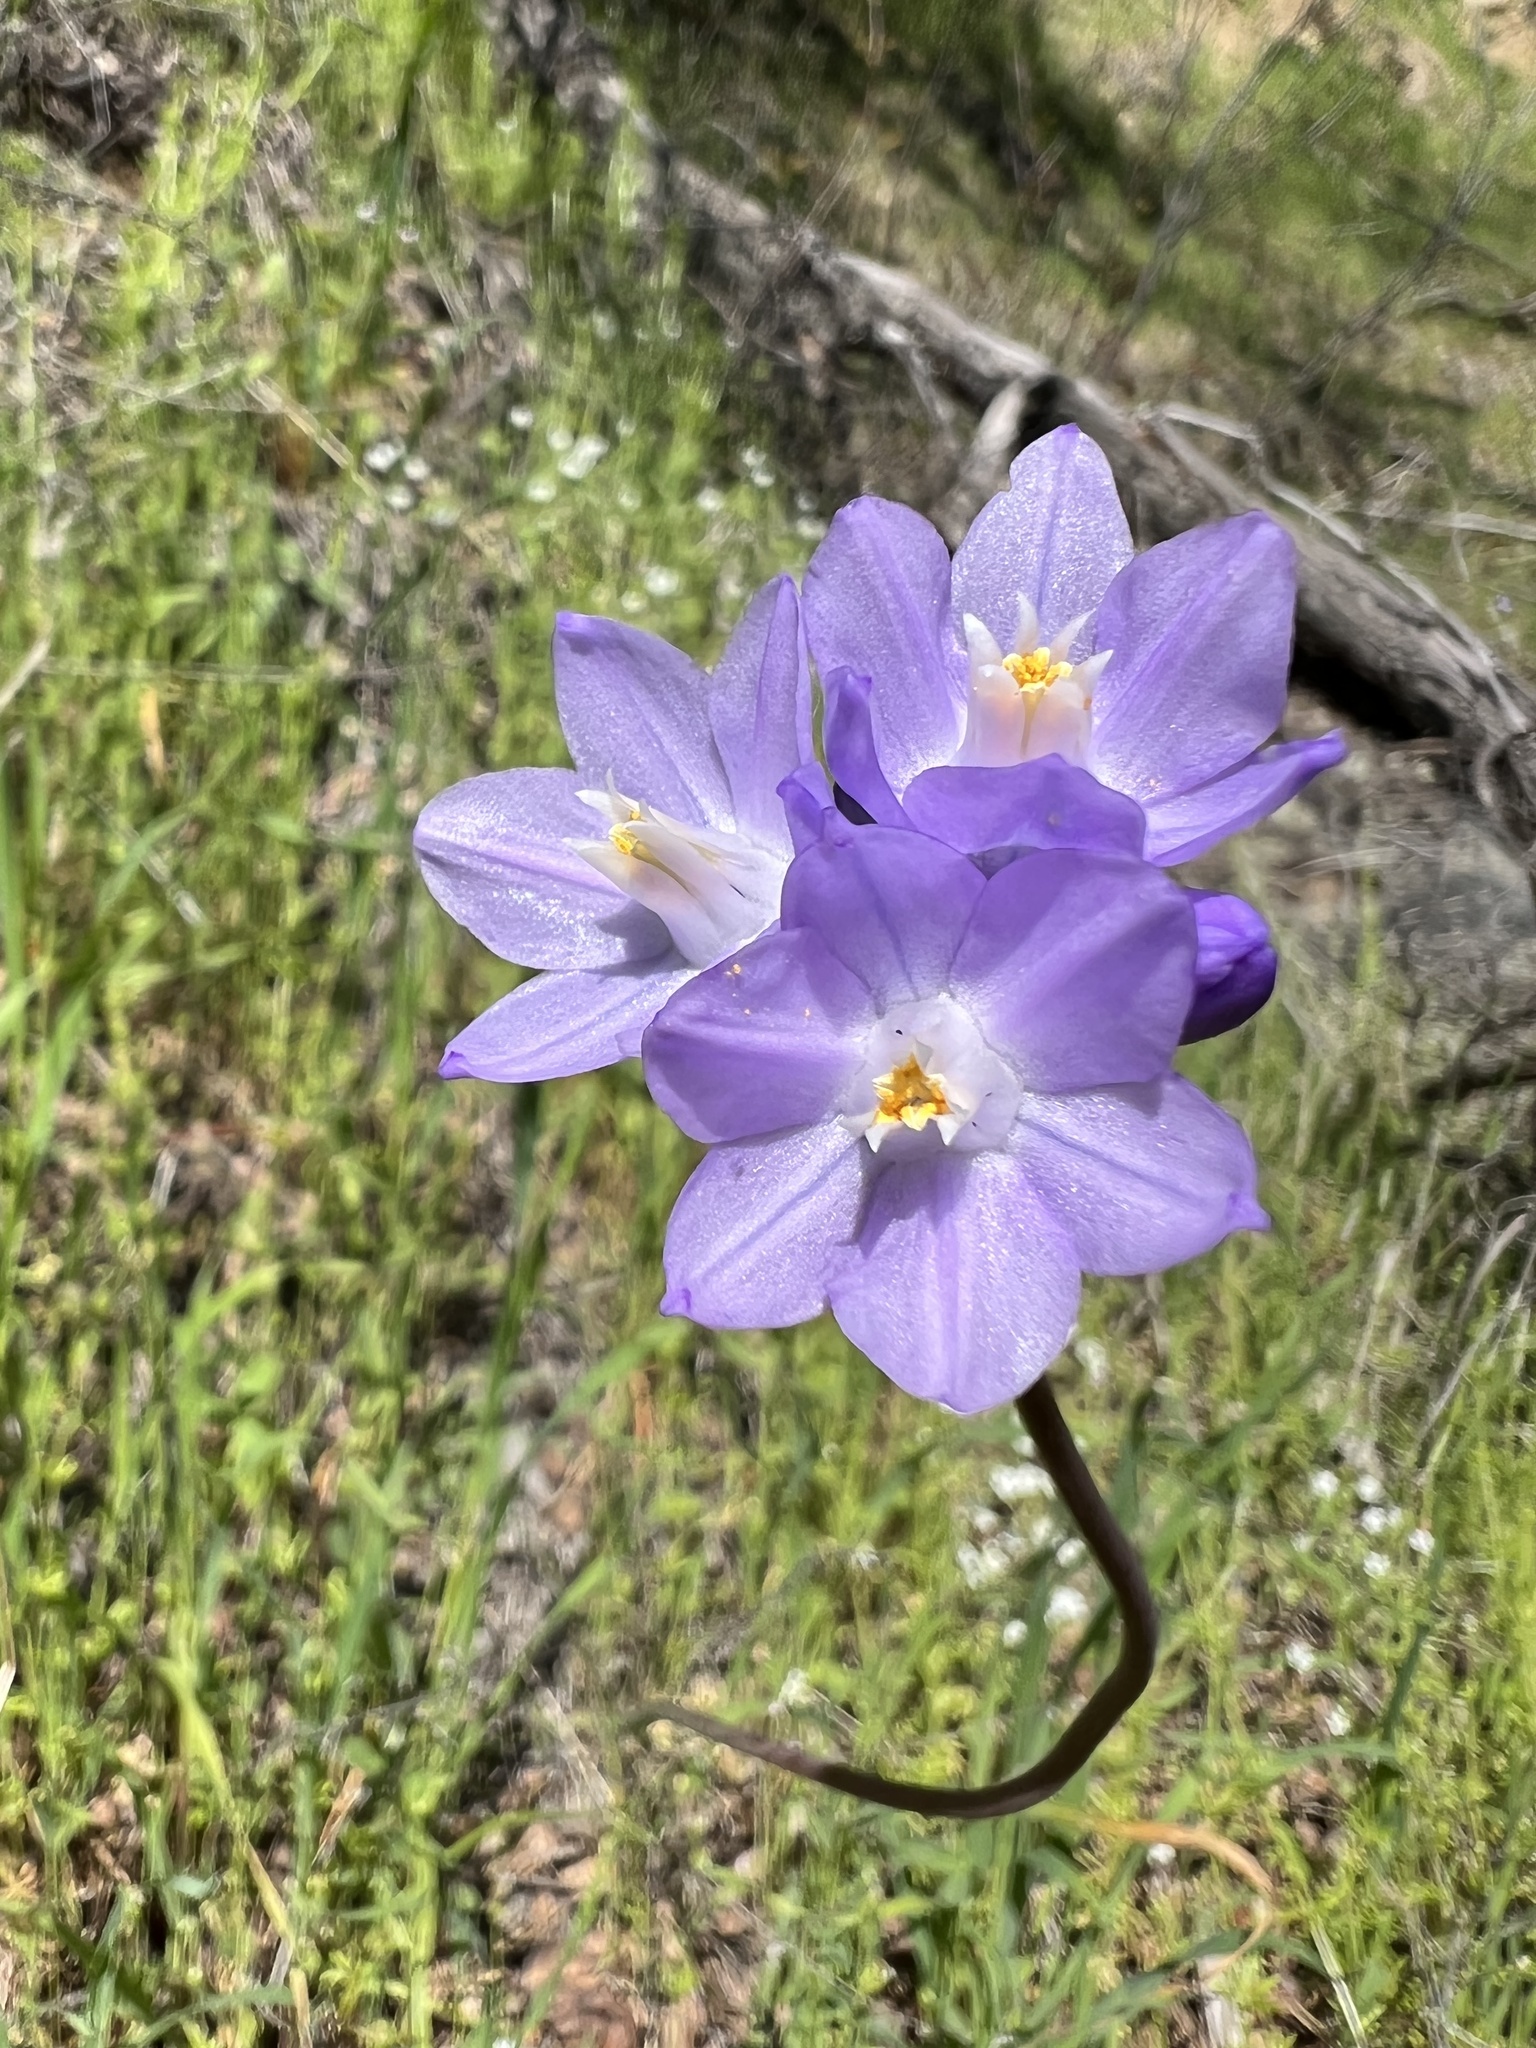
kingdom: Plantae
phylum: Tracheophyta
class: Liliopsida
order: Asparagales
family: Asparagaceae
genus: Dipterostemon
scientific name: Dipterostemon capitatus
